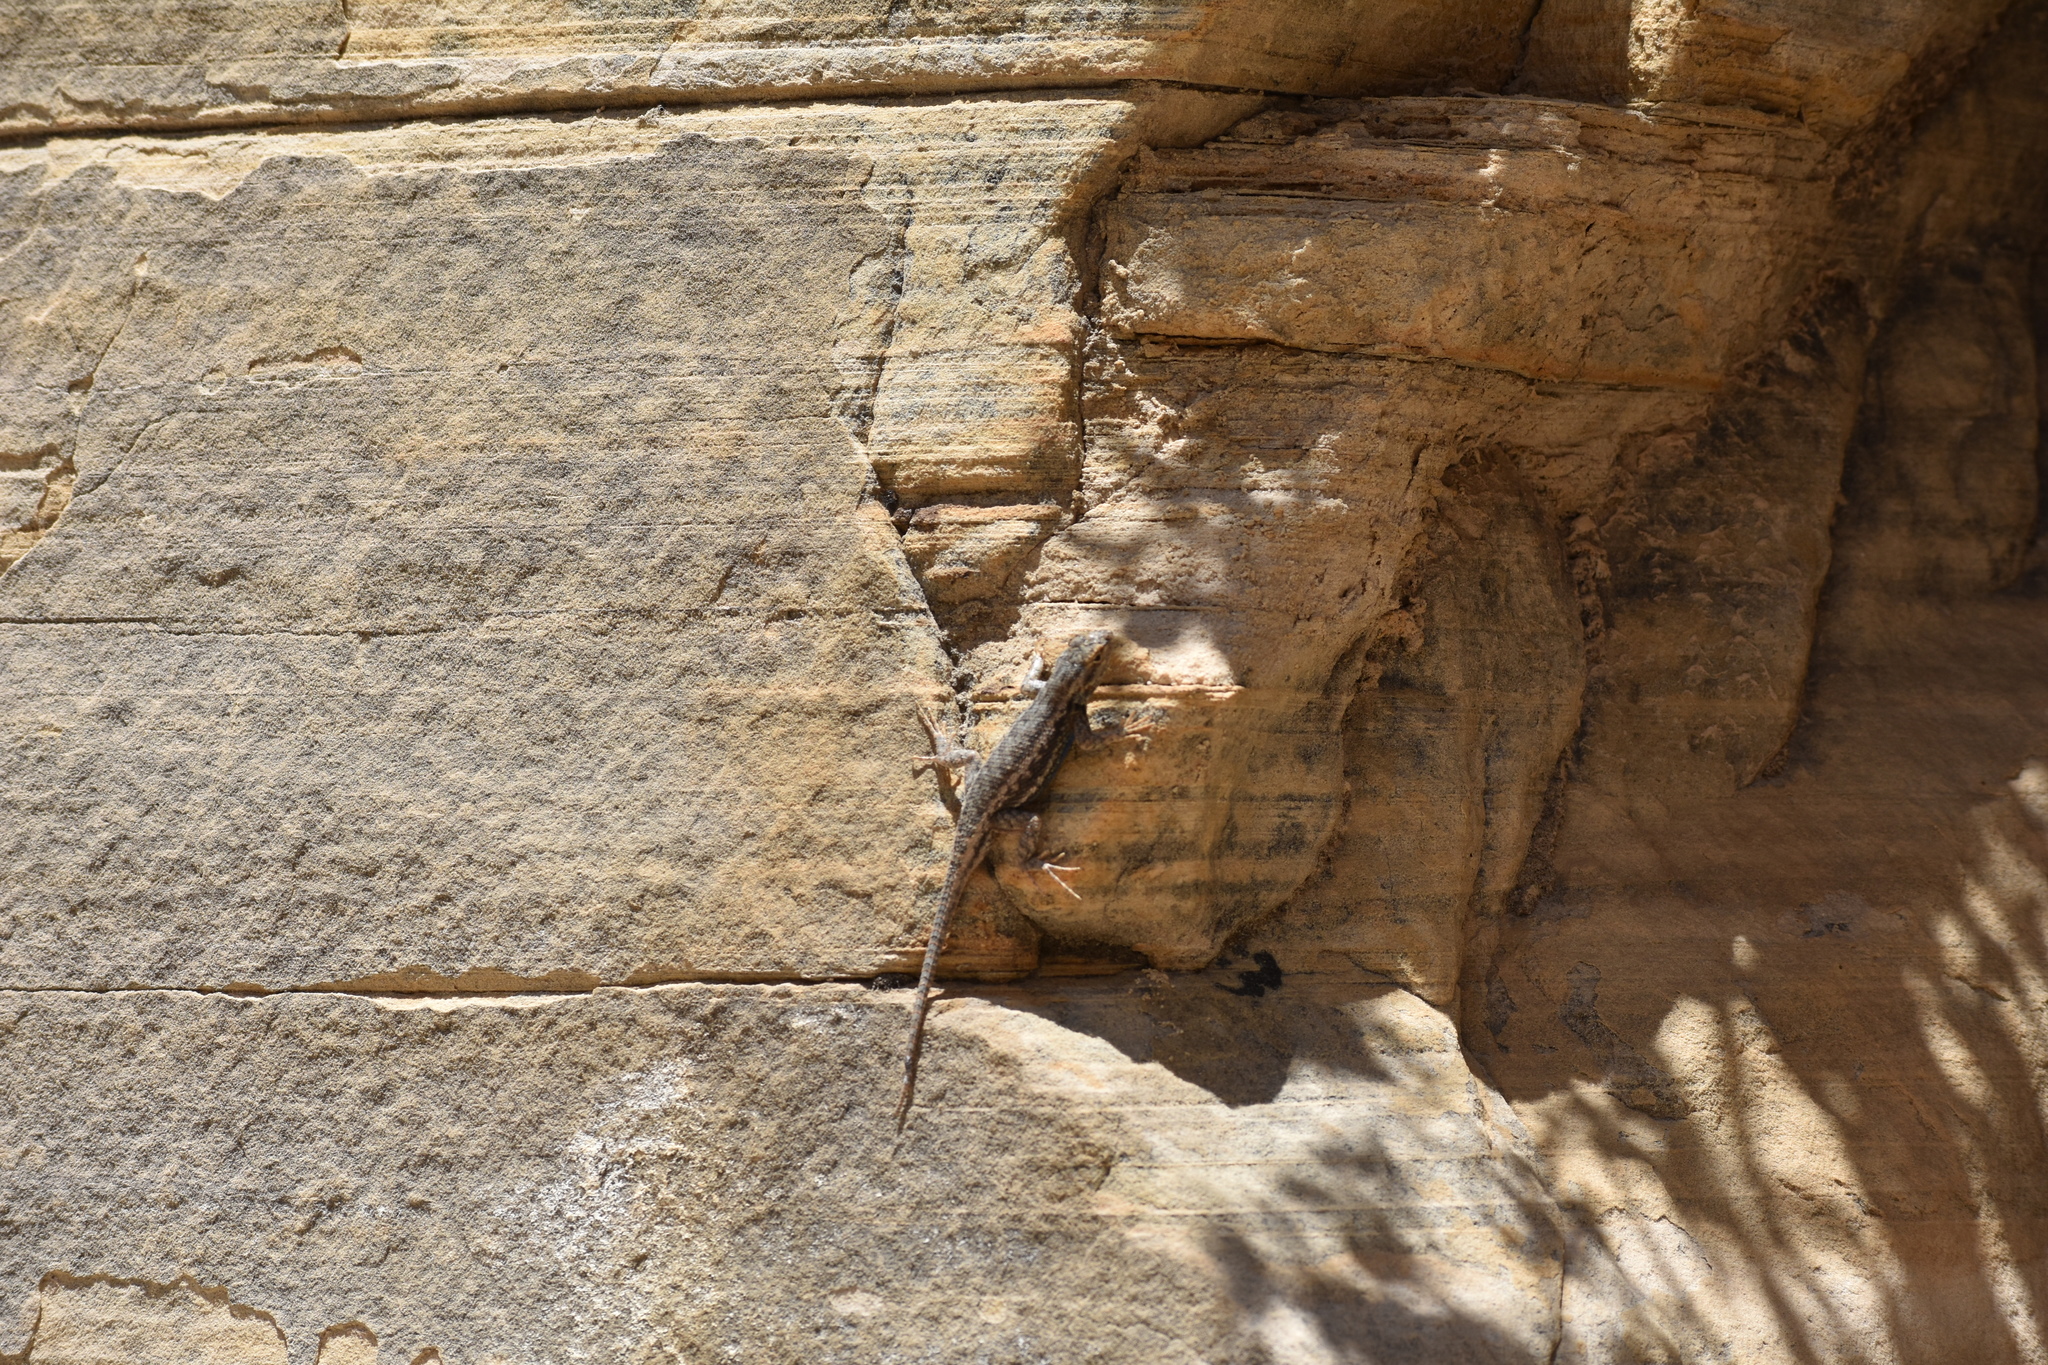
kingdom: Animalia
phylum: Chordata
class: Squamata
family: Phrynosomatidae
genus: Sceloporus
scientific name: Sceloporus graciosus
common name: Sagebrush lizard
